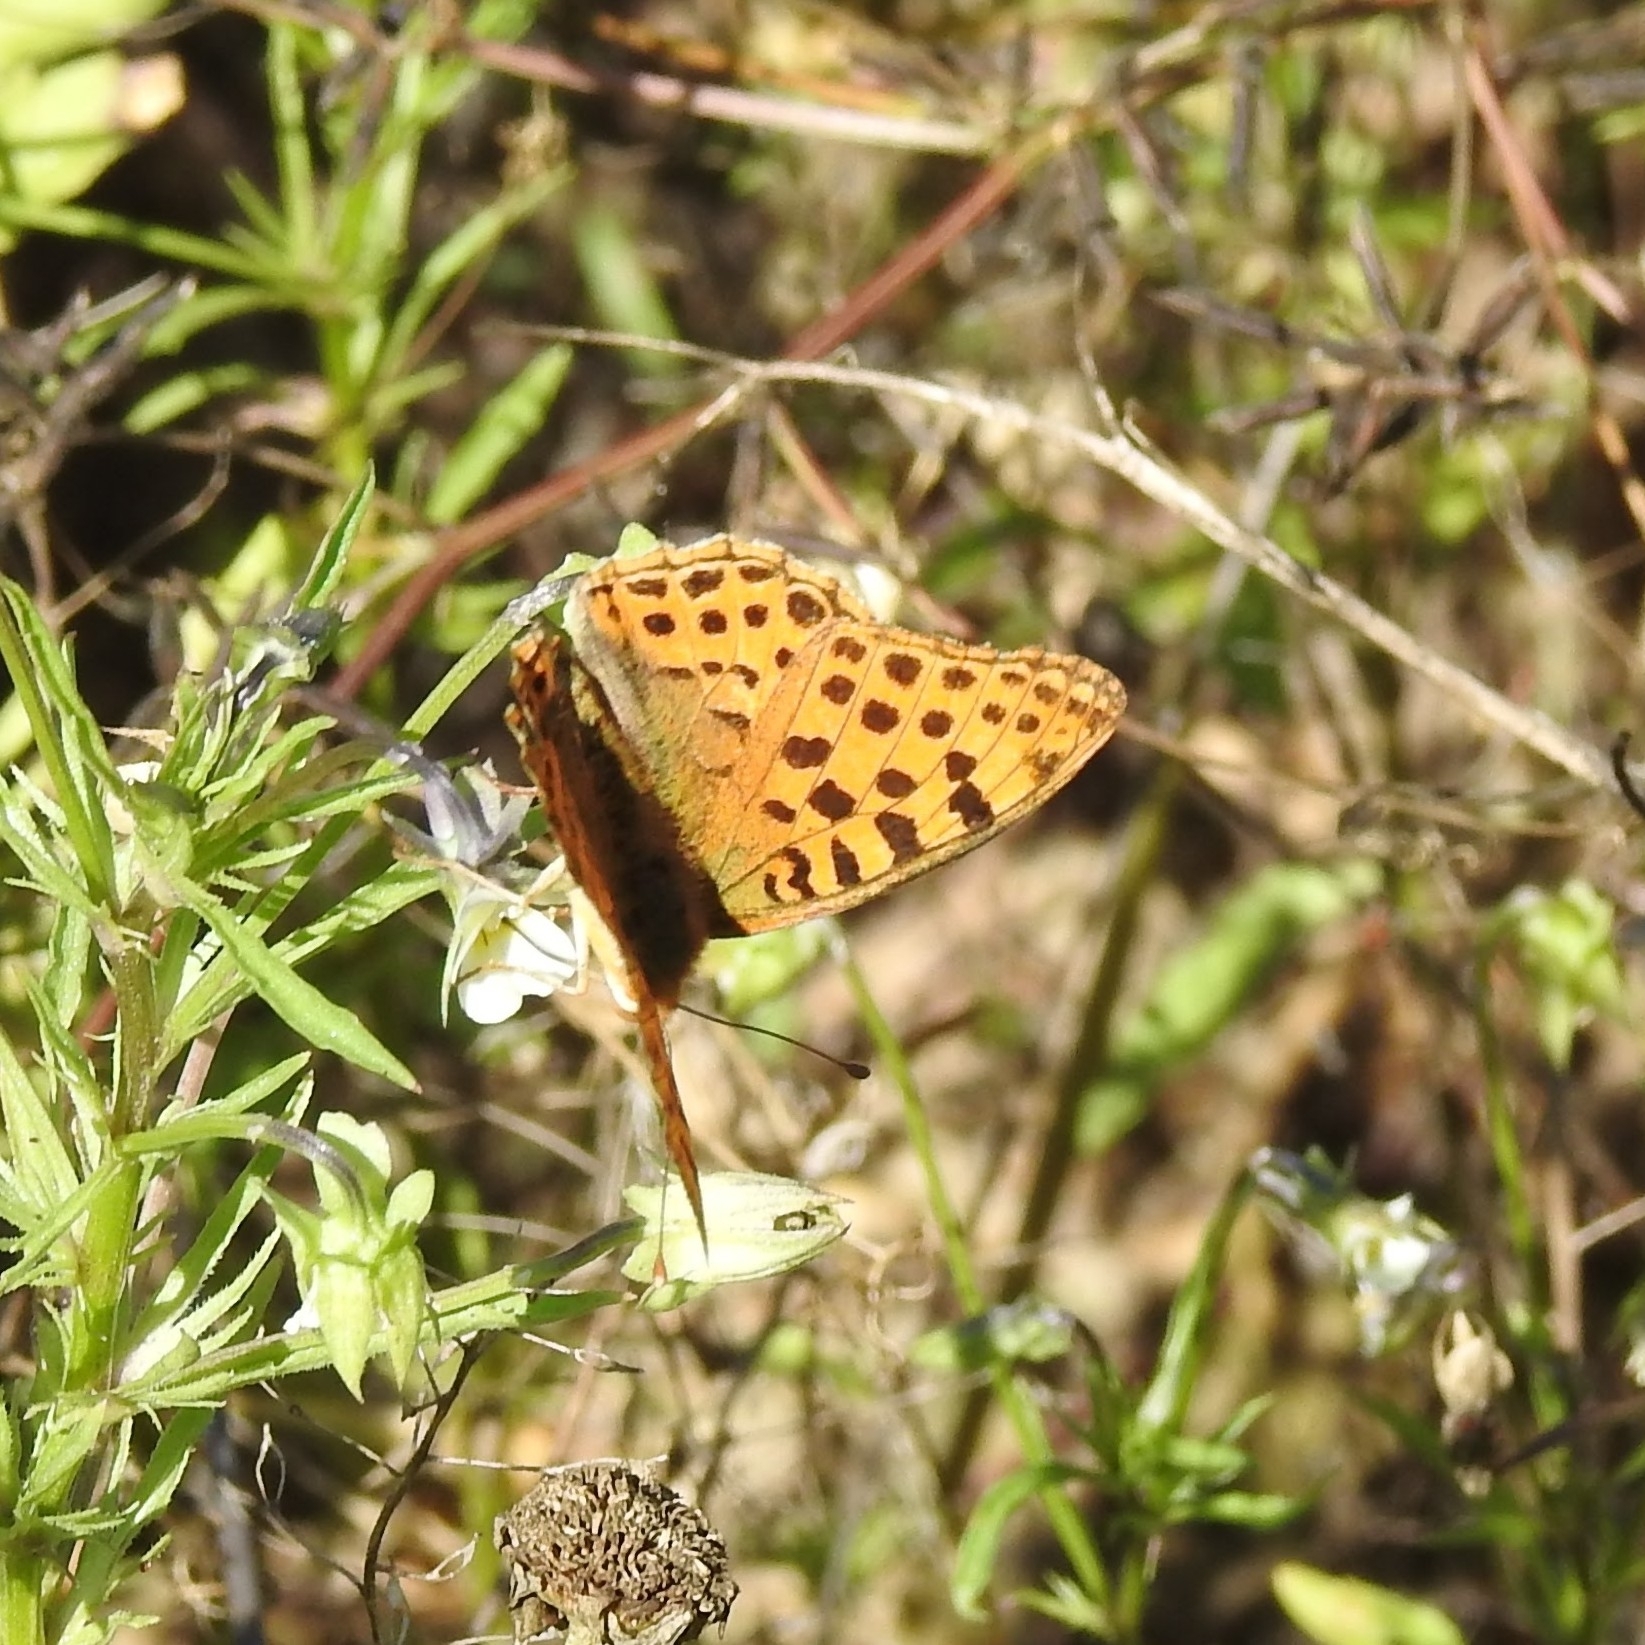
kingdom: Animalia
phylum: Arthropoda
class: Insecta
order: Lepidoptera
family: Nymphalidae
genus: Issoria
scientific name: Issoria lathonia
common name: Queen of spain fritillary
